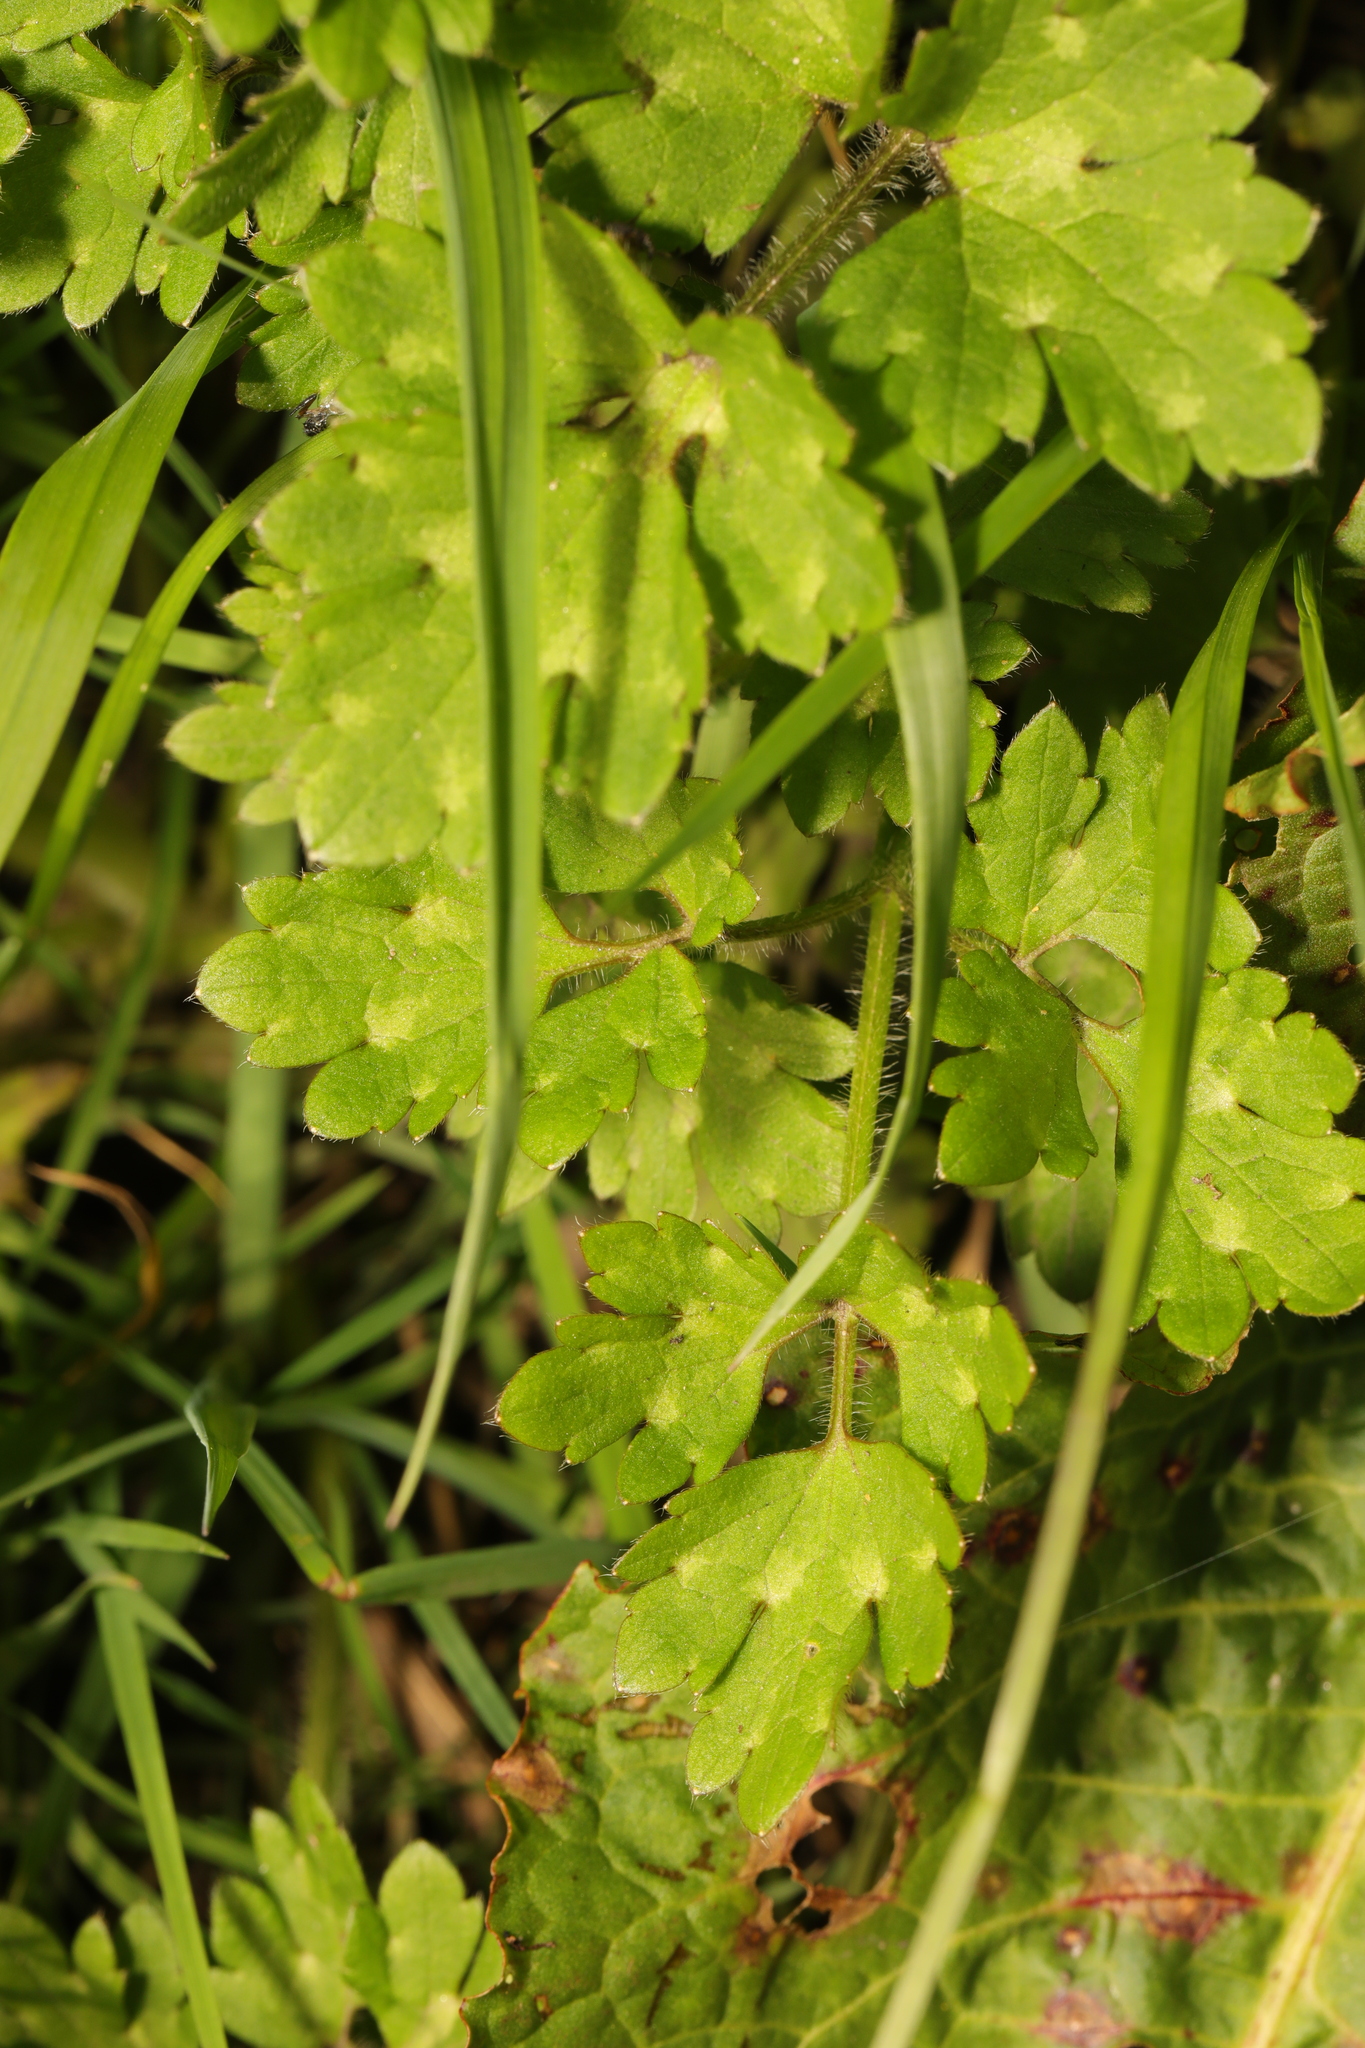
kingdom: Plantae
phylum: Tracheophyta
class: Magnoliopsida
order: Ranunculales
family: Ranunculaceae
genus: Ranunculus
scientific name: Ranunculus repens
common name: Creeping buttercup
